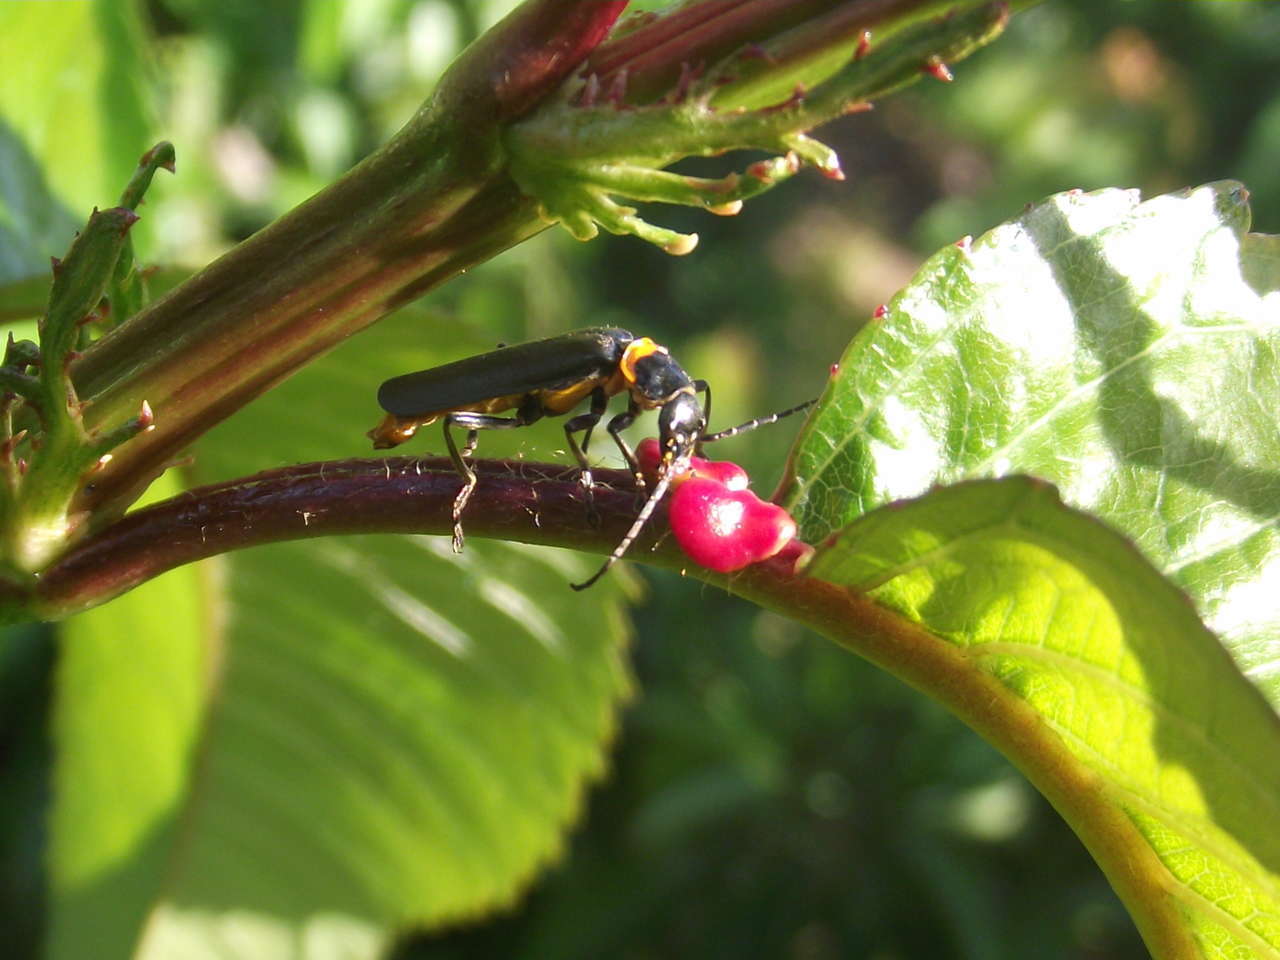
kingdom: Animalia
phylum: Arthropoda
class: Insecta
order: Coleoptera
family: Cantharidae
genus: Chauliognathus
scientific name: Chauliognathus
